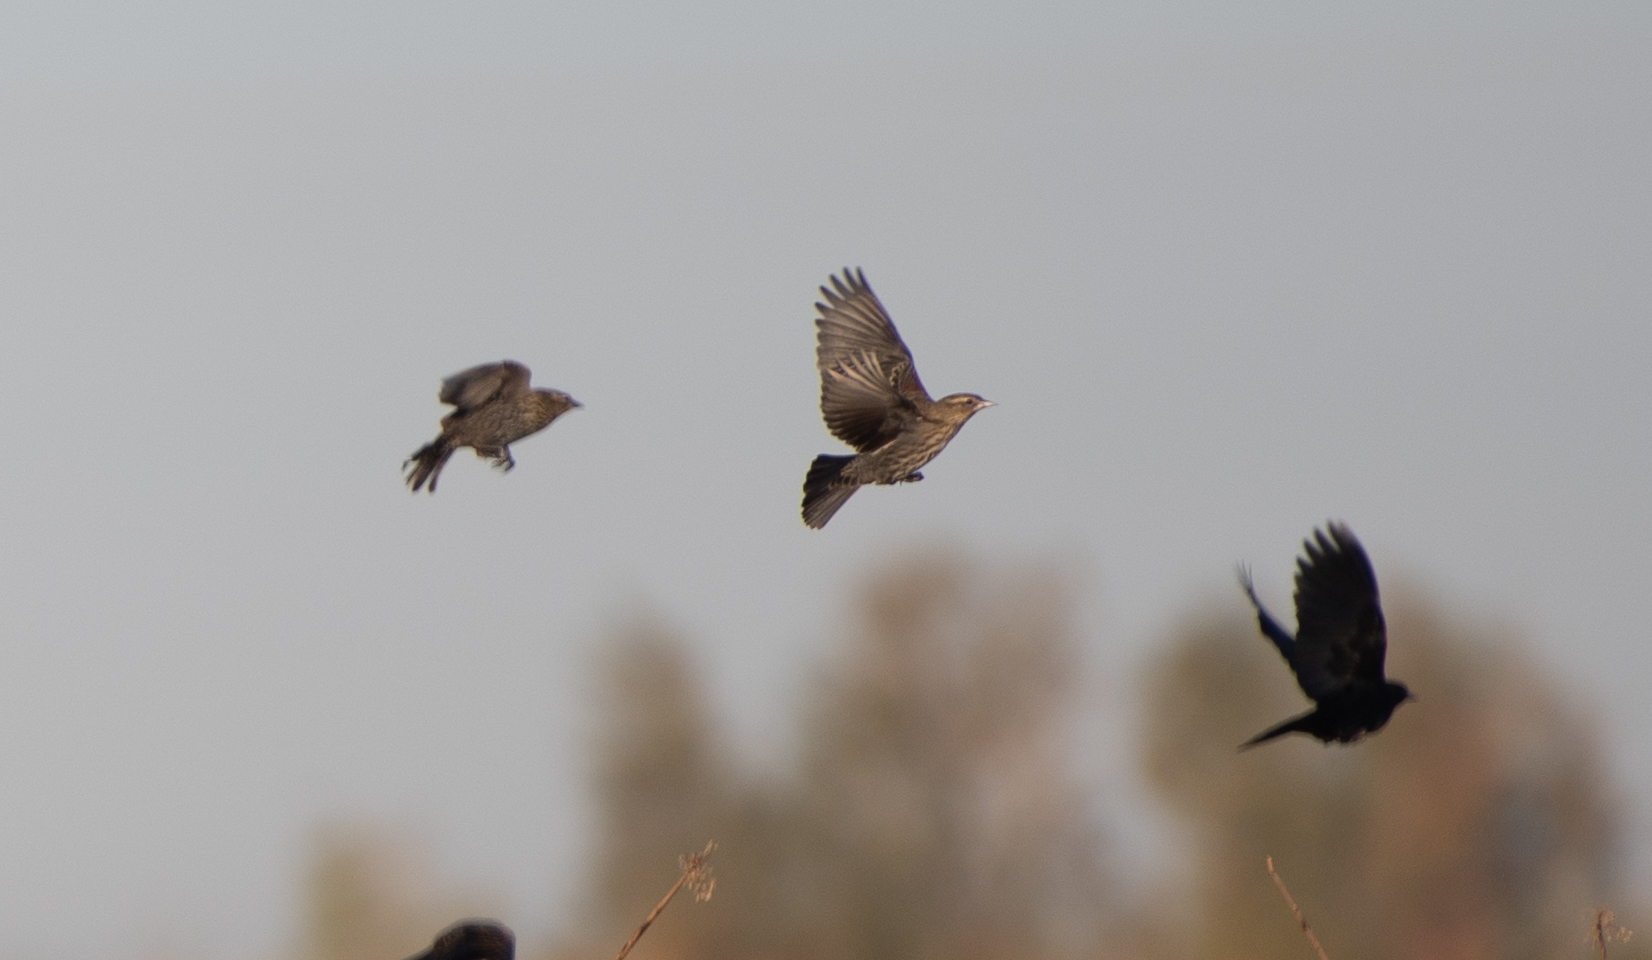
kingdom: Animalia
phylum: Chordata
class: Aves
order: Passeriformes
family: Icteridae
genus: Agelaius
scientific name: Agelaius phoeniceus
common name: Red-winged blackbird
